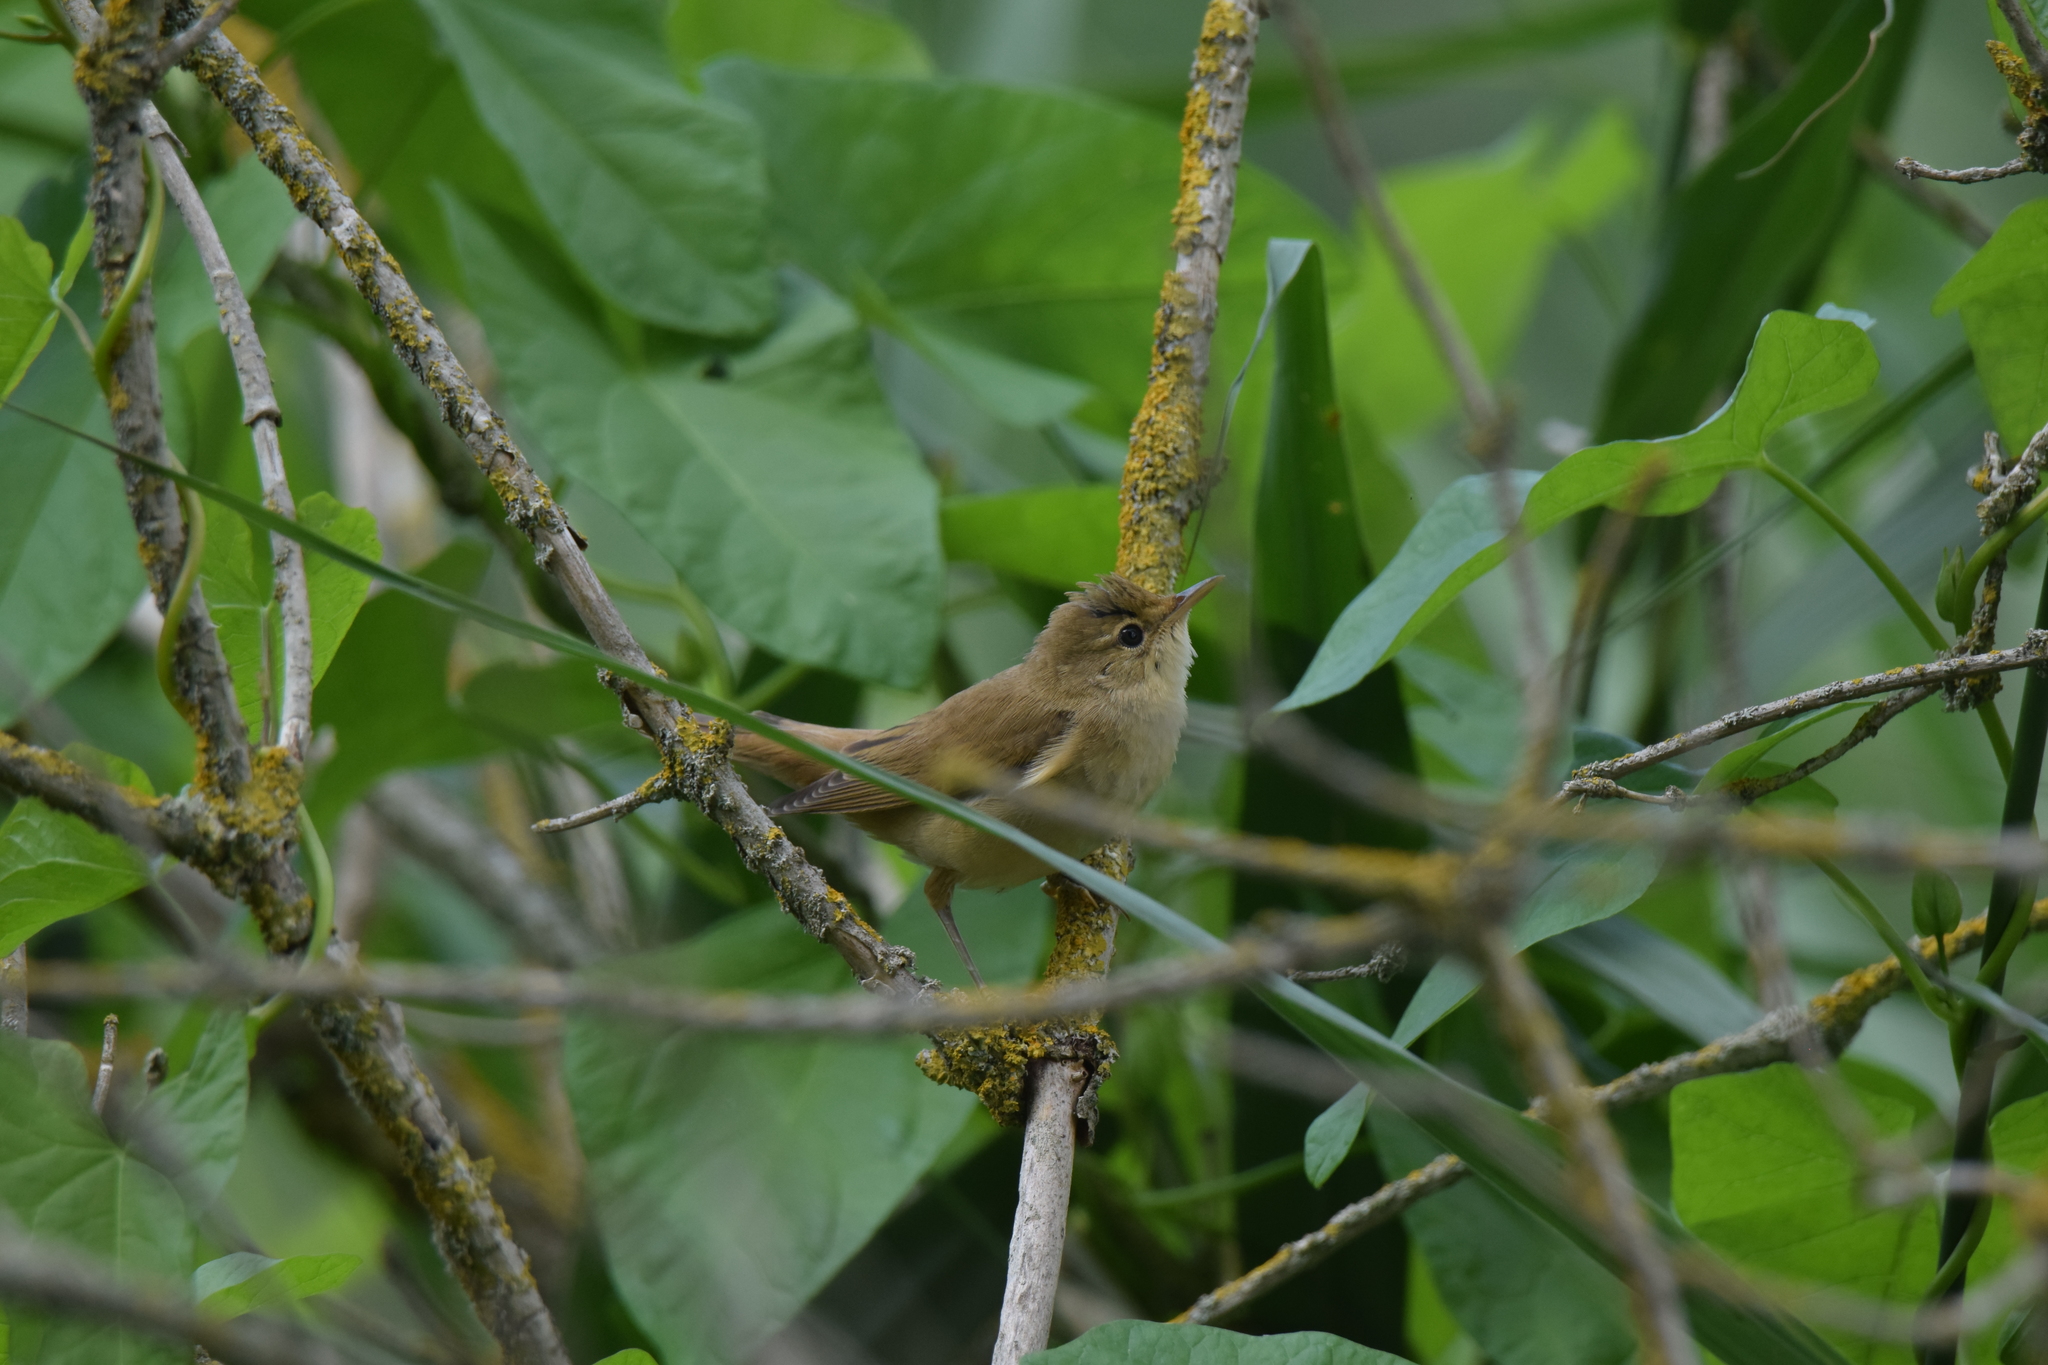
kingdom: Animalia
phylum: Chordata
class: Aves
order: Passeriformes
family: Acrocephalidae
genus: Acrocephalus
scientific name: Acrocephalus scirpaceus
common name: Eurasian reed warbler
